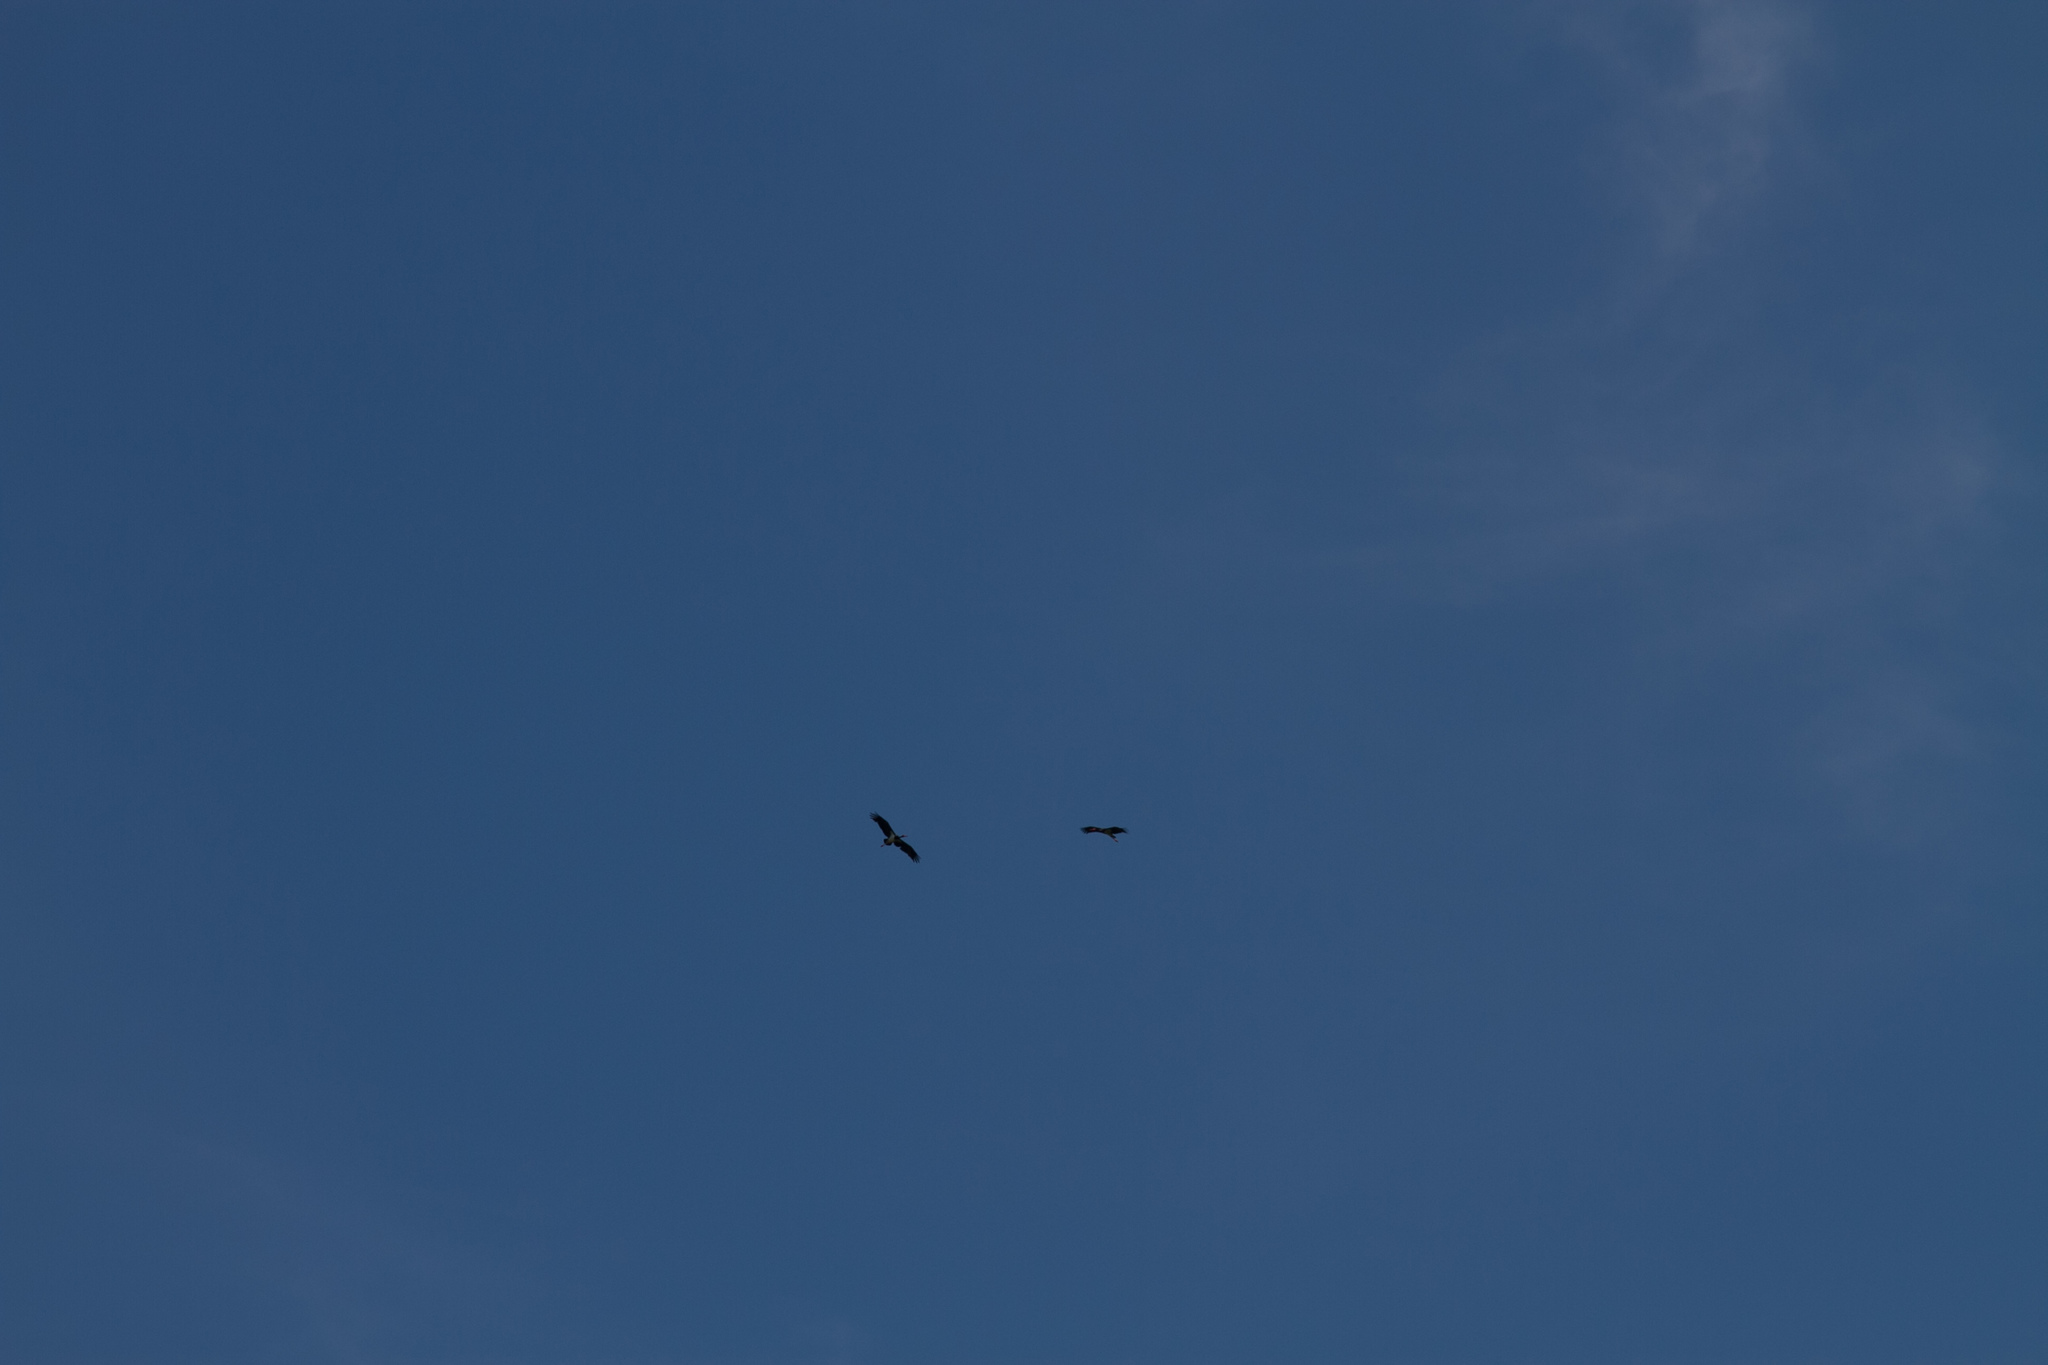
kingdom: Animalia
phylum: Chordata
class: Aves
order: Ciconiiformes
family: Ciconiidae
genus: Ciconia
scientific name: Ciconia nigra
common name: Black stork
